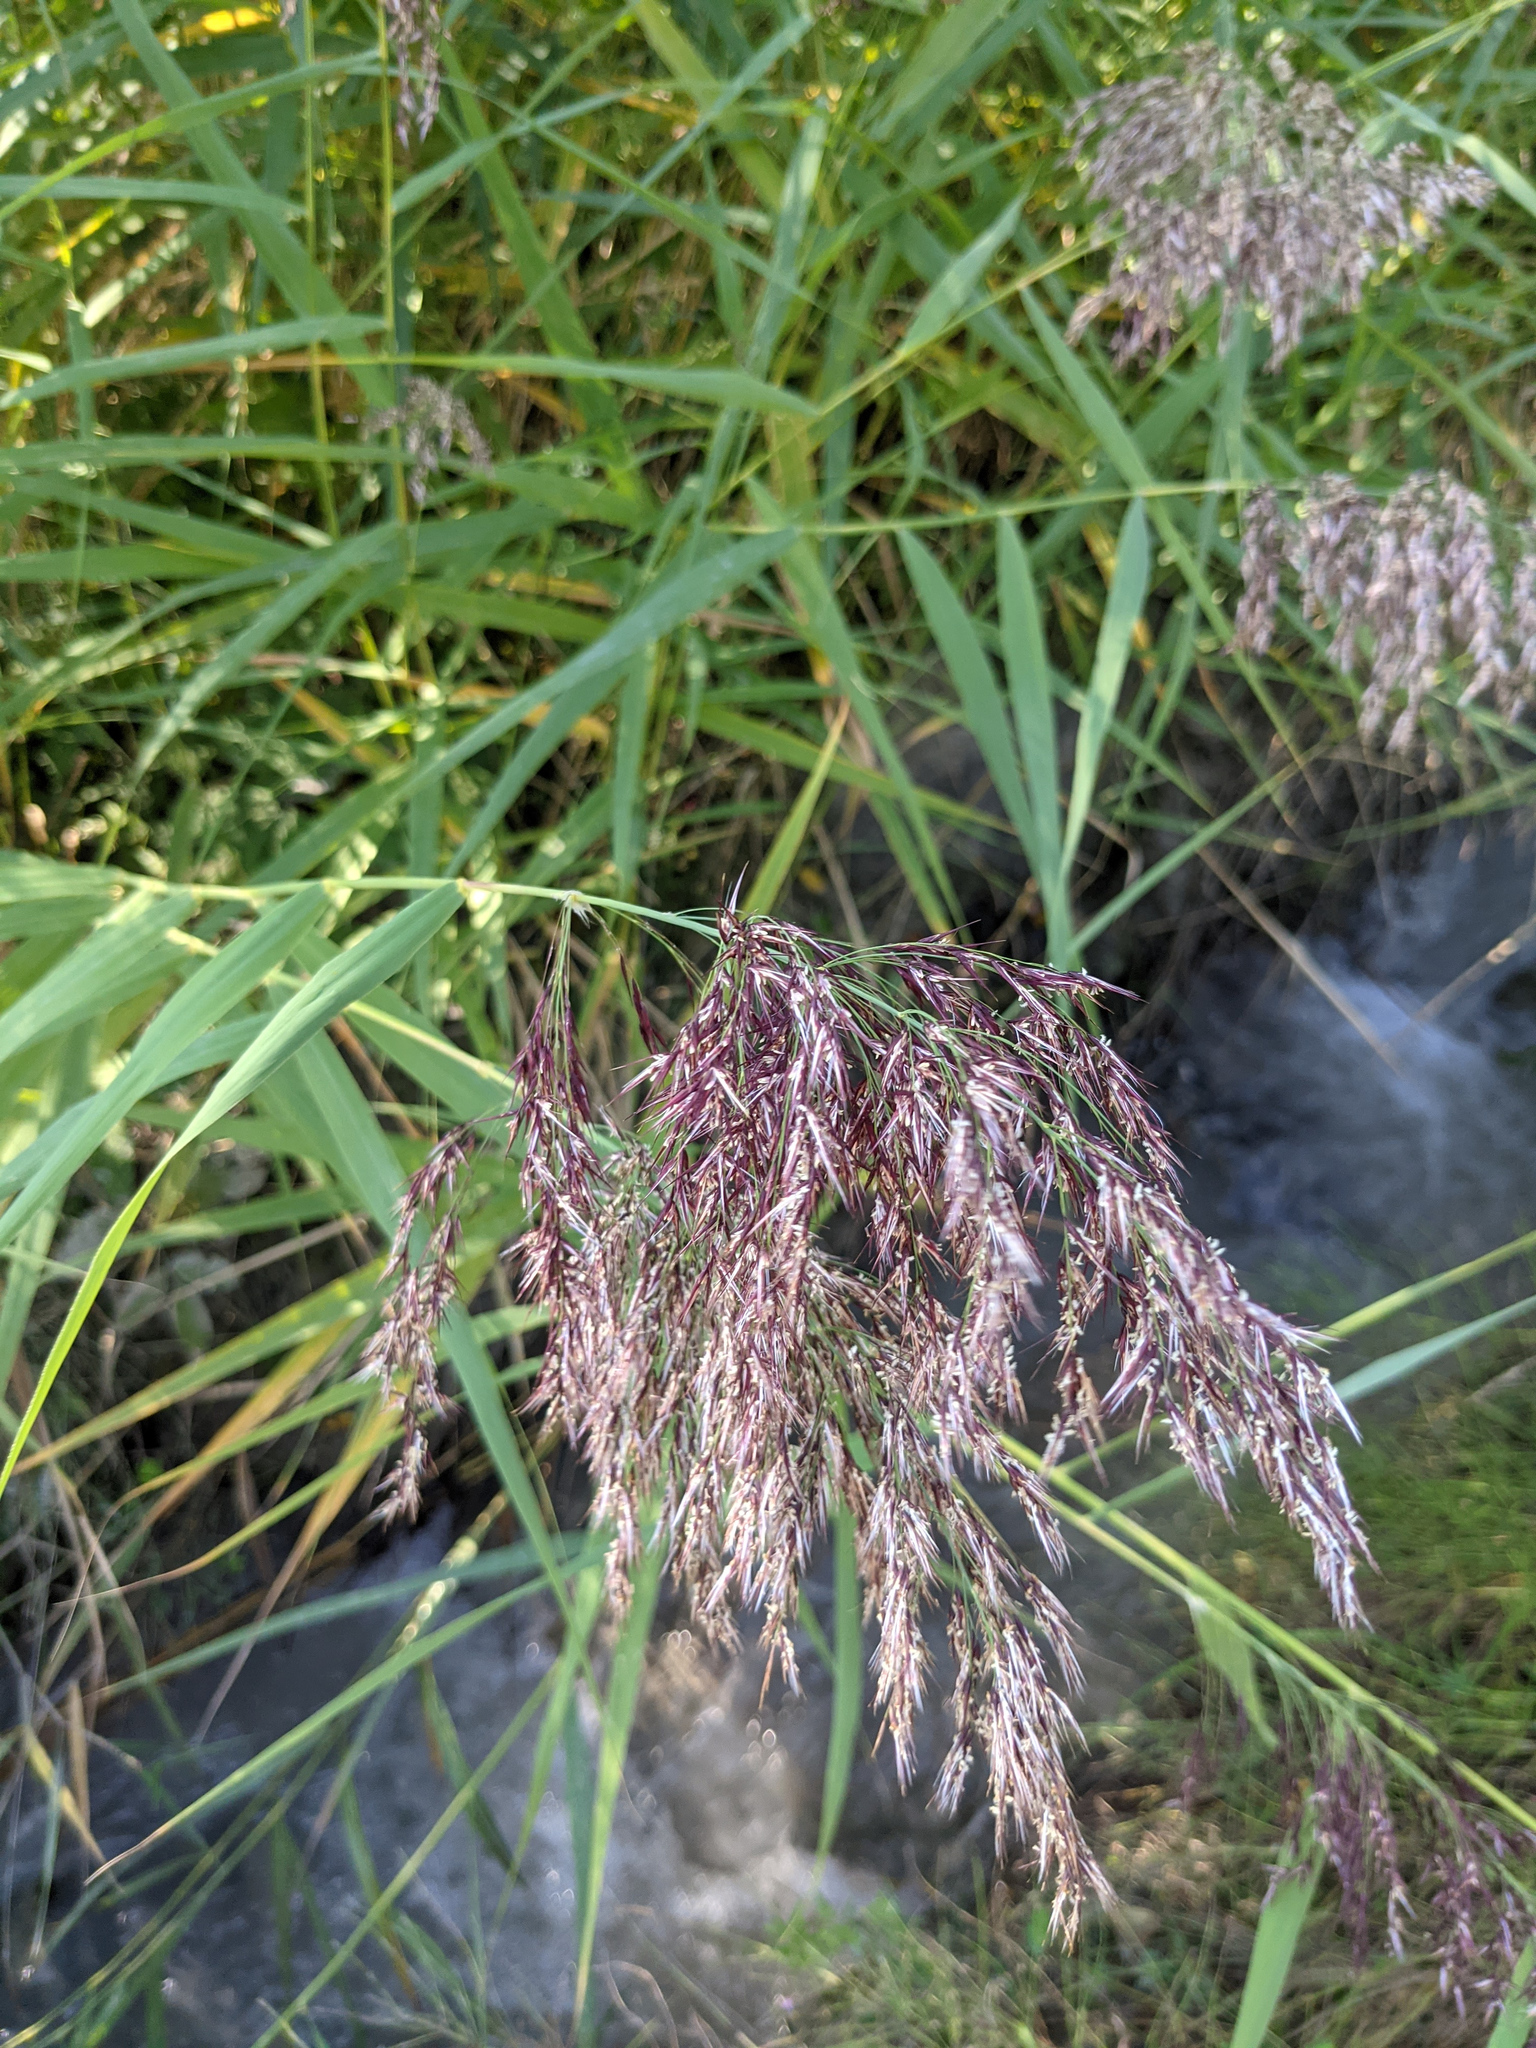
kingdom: Plantae
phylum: Tracheophyta
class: Liliopsida
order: Poales
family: Poaceae
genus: Phragmites
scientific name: Phragmites australis
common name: Common reed
